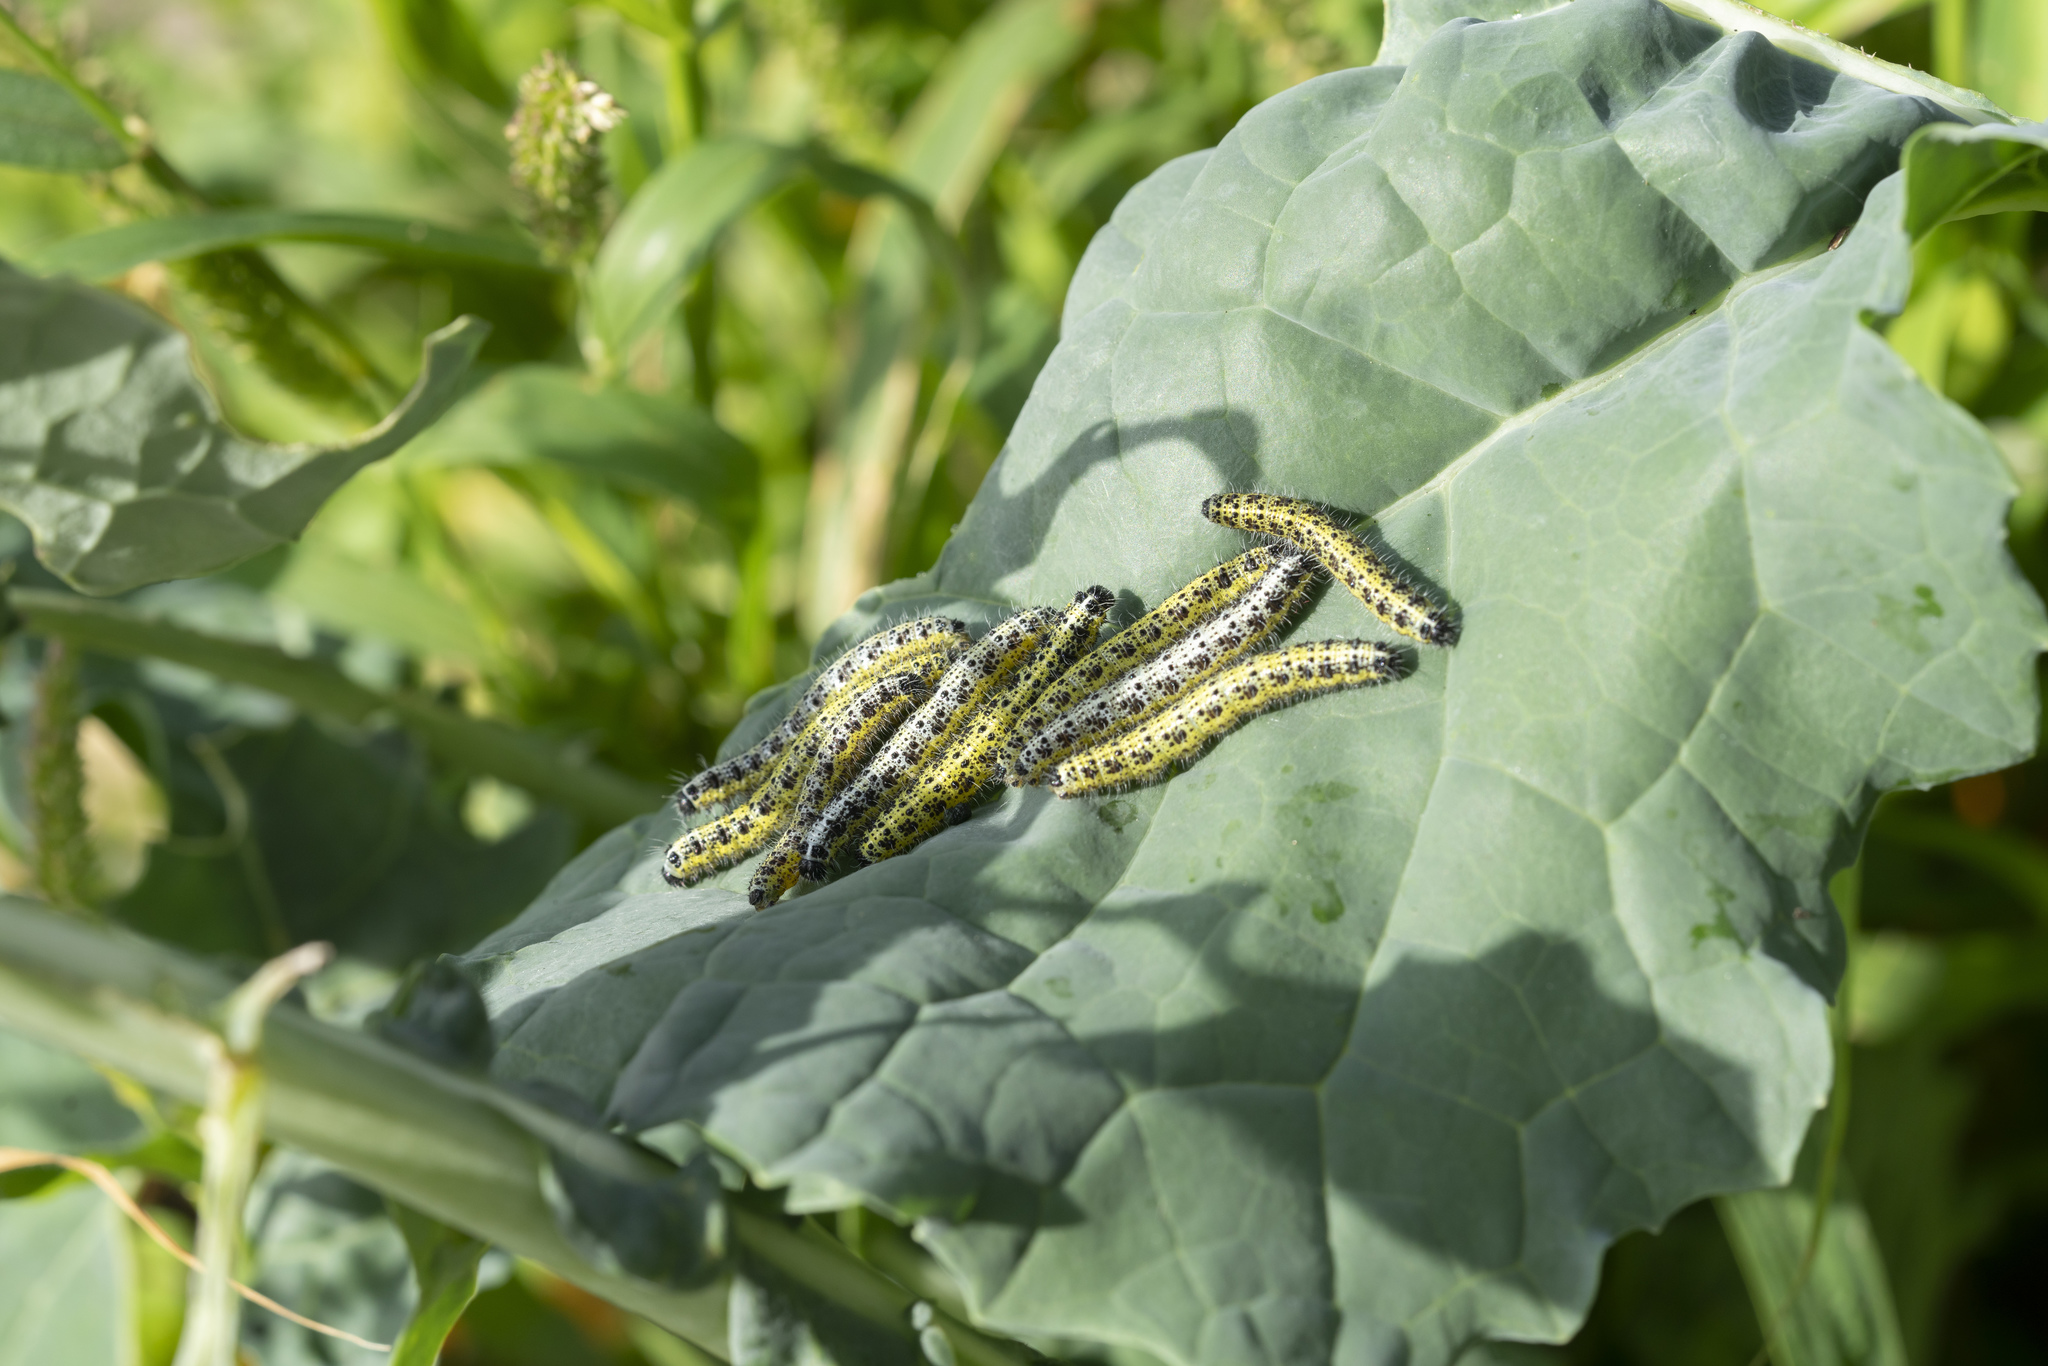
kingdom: Animalia
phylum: Arthropoda
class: Insecta
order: Lepidoptera
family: Pieridae
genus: Pieris
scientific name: Pieris brassicae
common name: Large white
